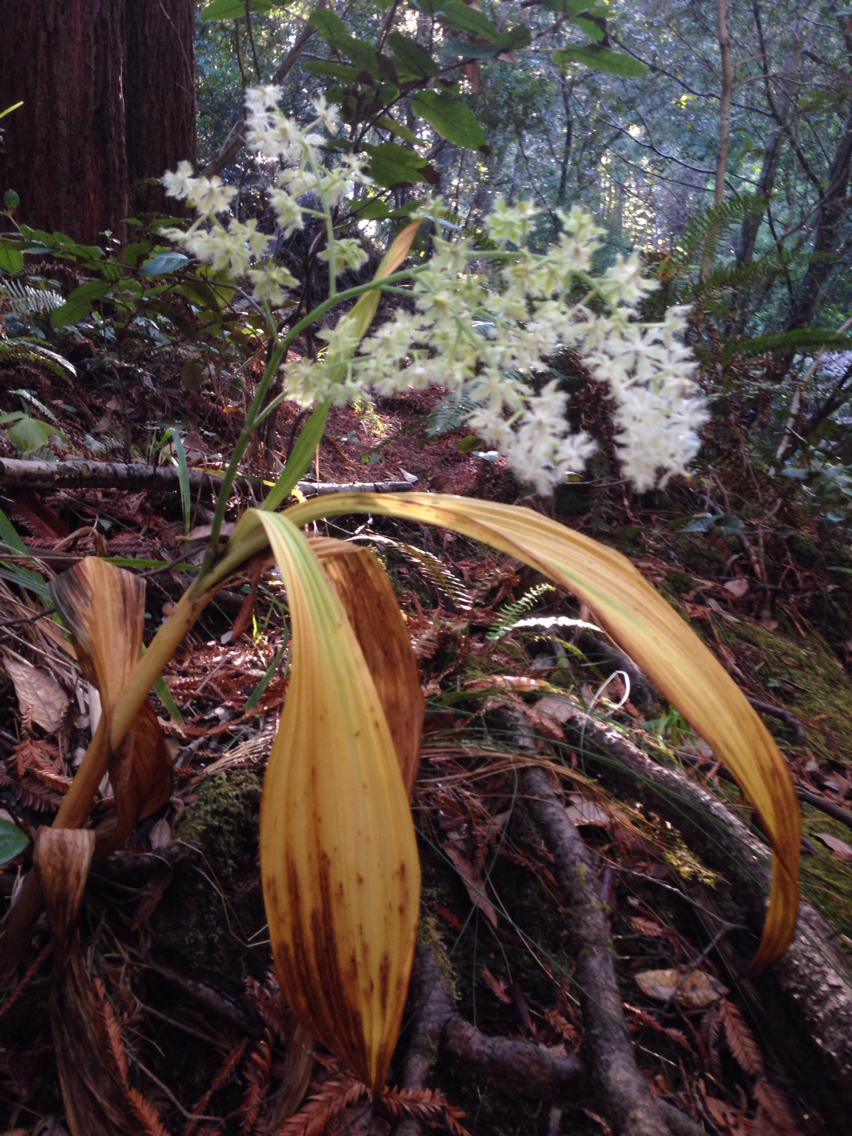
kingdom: Plantae
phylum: Tracheophyta
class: Liliopsida
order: Liliales
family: Melanthiaceae
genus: Veratrum
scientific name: Veratrum fimbriatum
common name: Fringe false hellobore
